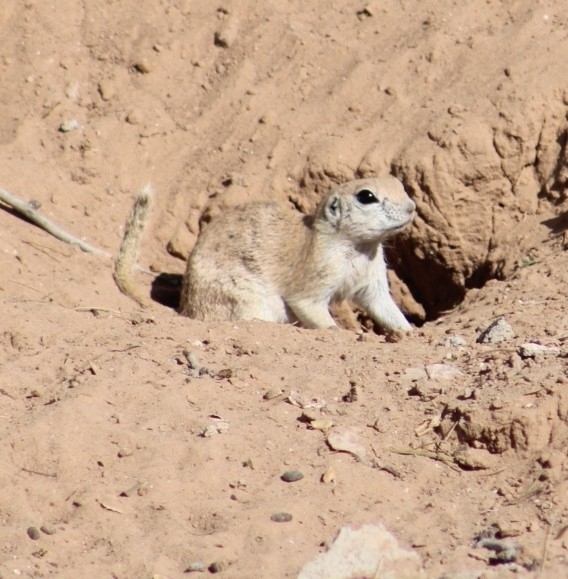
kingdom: Animalia
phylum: Chordata
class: Mammalia
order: Rodentia
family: Sciuridae
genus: Xerospermophilus
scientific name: Xerospermophilus tereticaudus
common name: Round-tailed ground squirrel
